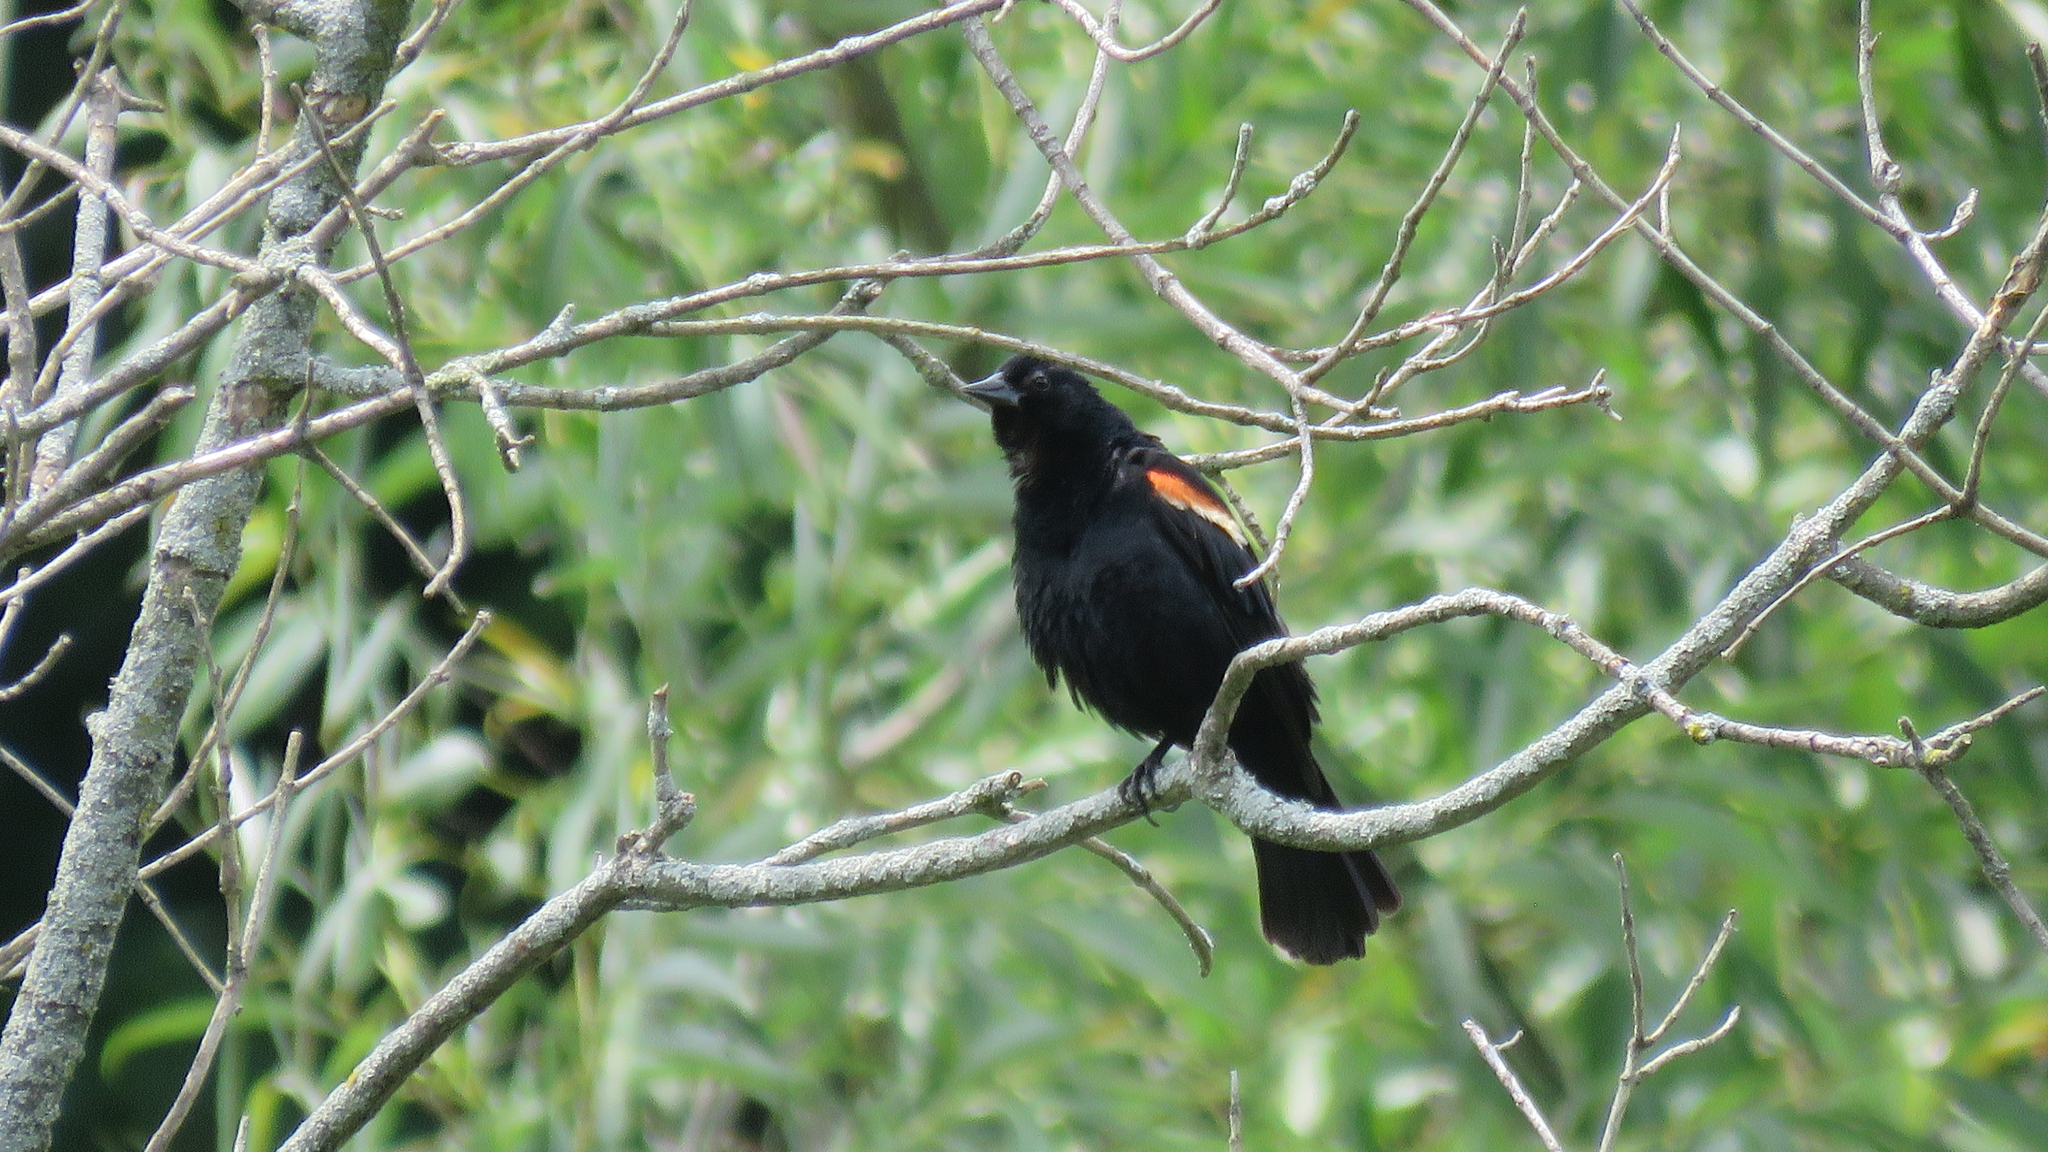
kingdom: Animalia
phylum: Chordata
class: Aves
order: Passeriformes
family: Icteridae
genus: Agelaius
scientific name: Agelaius phoeniceus
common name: Red-winged blackbird
